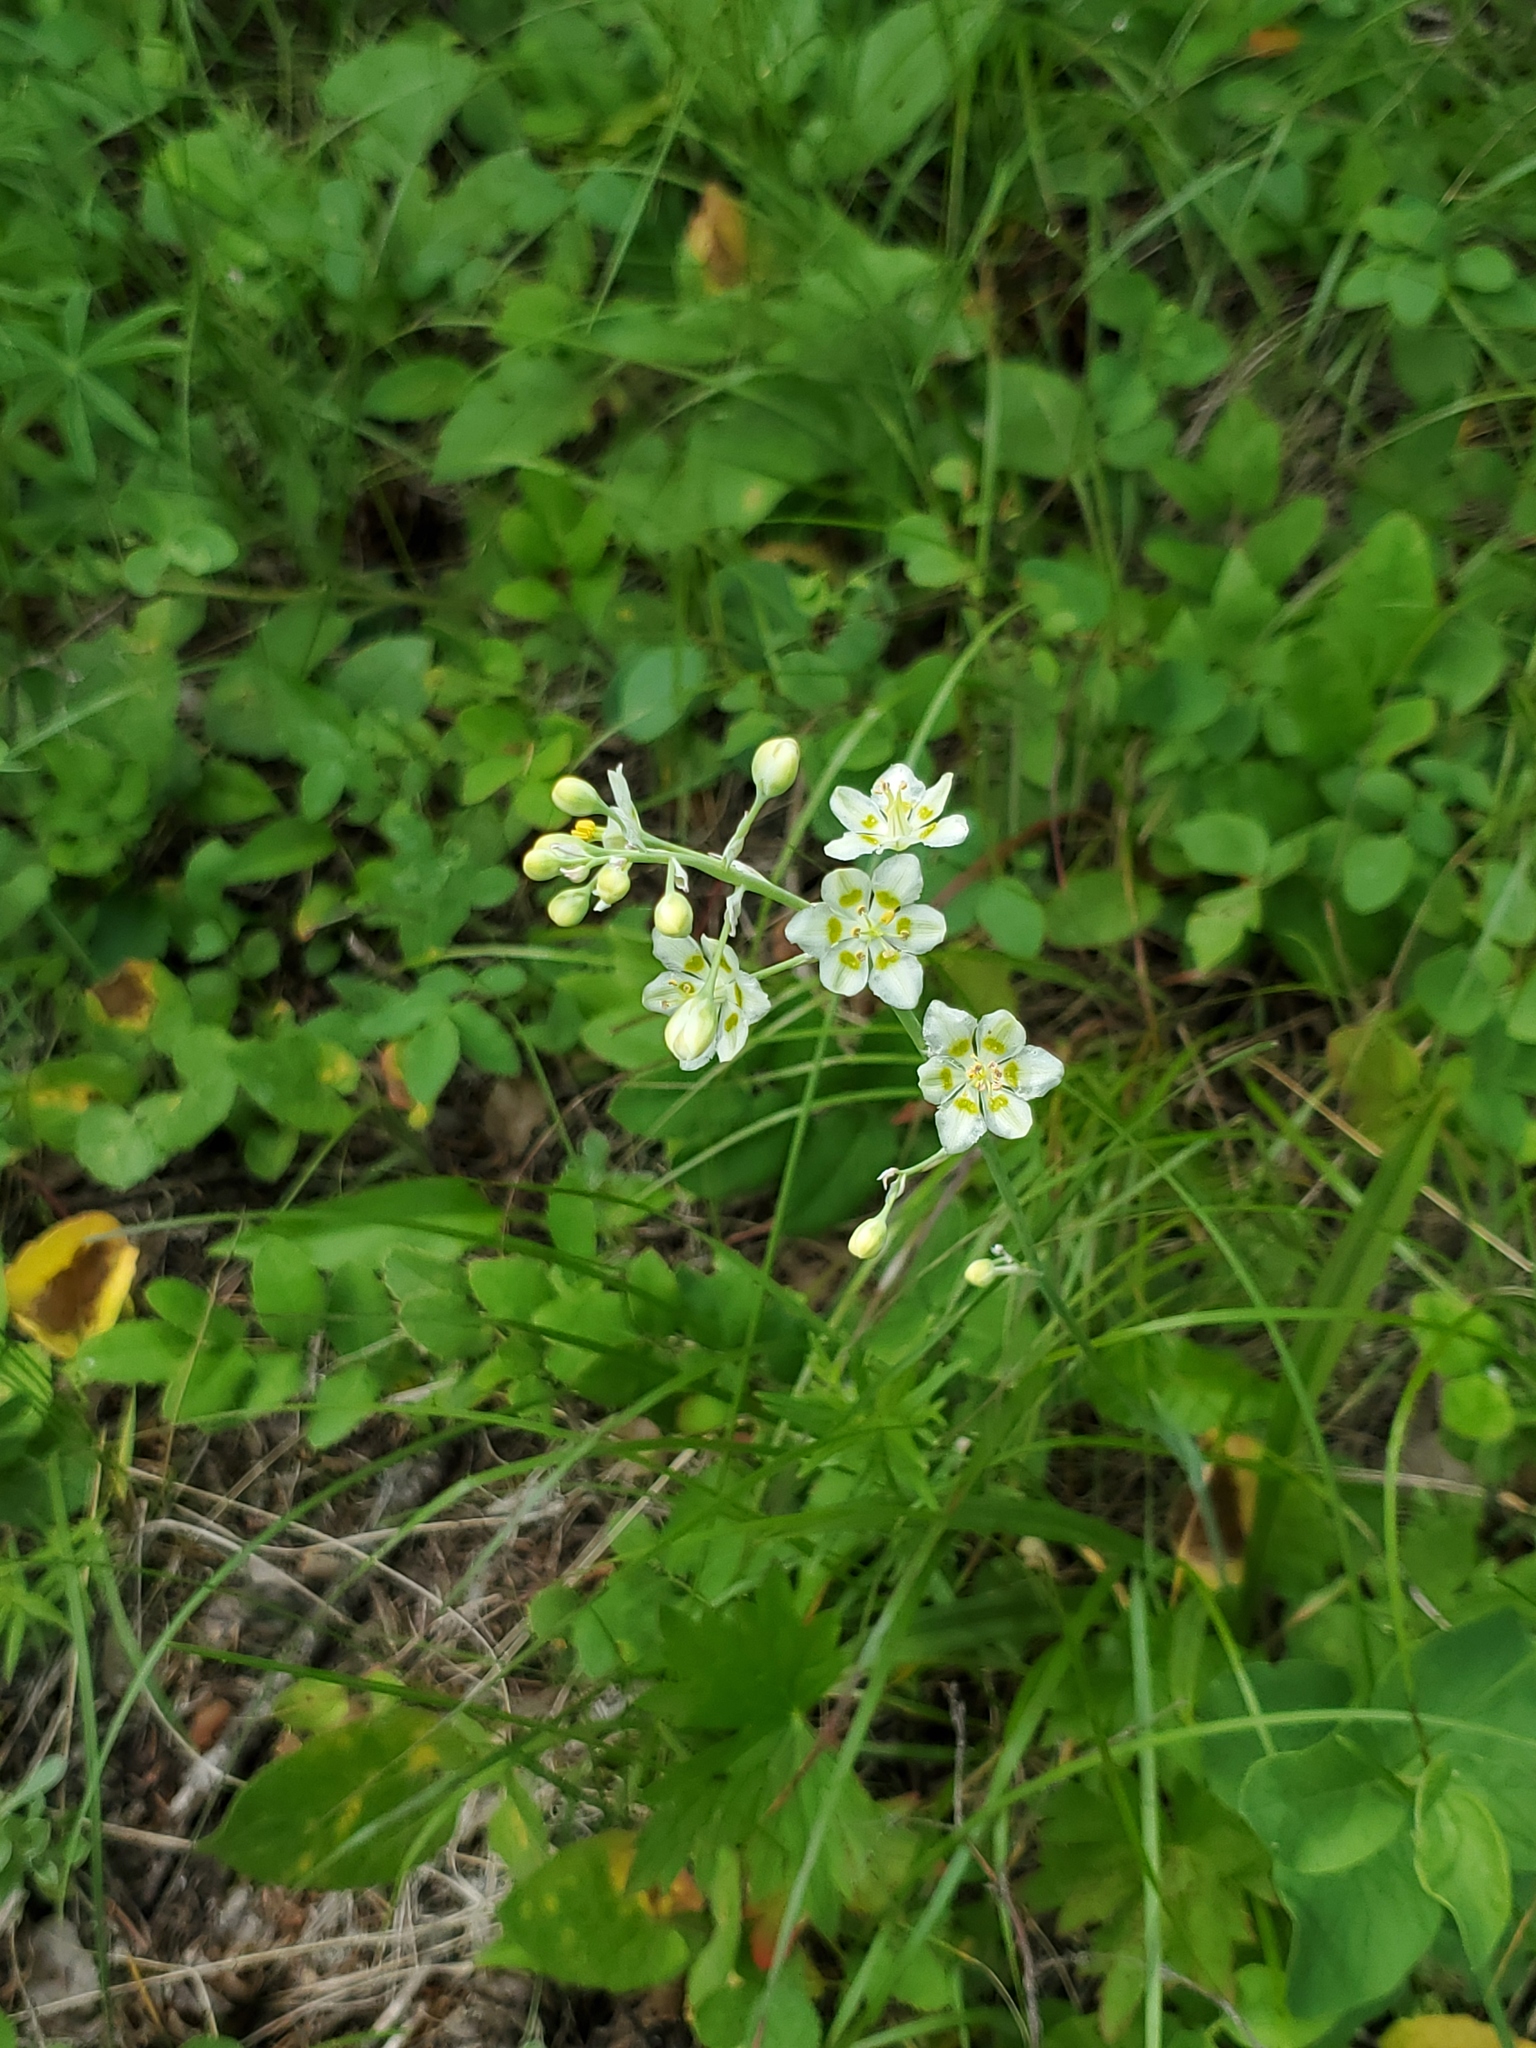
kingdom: Plantae
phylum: Tracheophyta
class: Liliopsida
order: Liliales
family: Melanthiaceae
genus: Anticlea
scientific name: Anticlea elegans
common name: Mountain death camas
